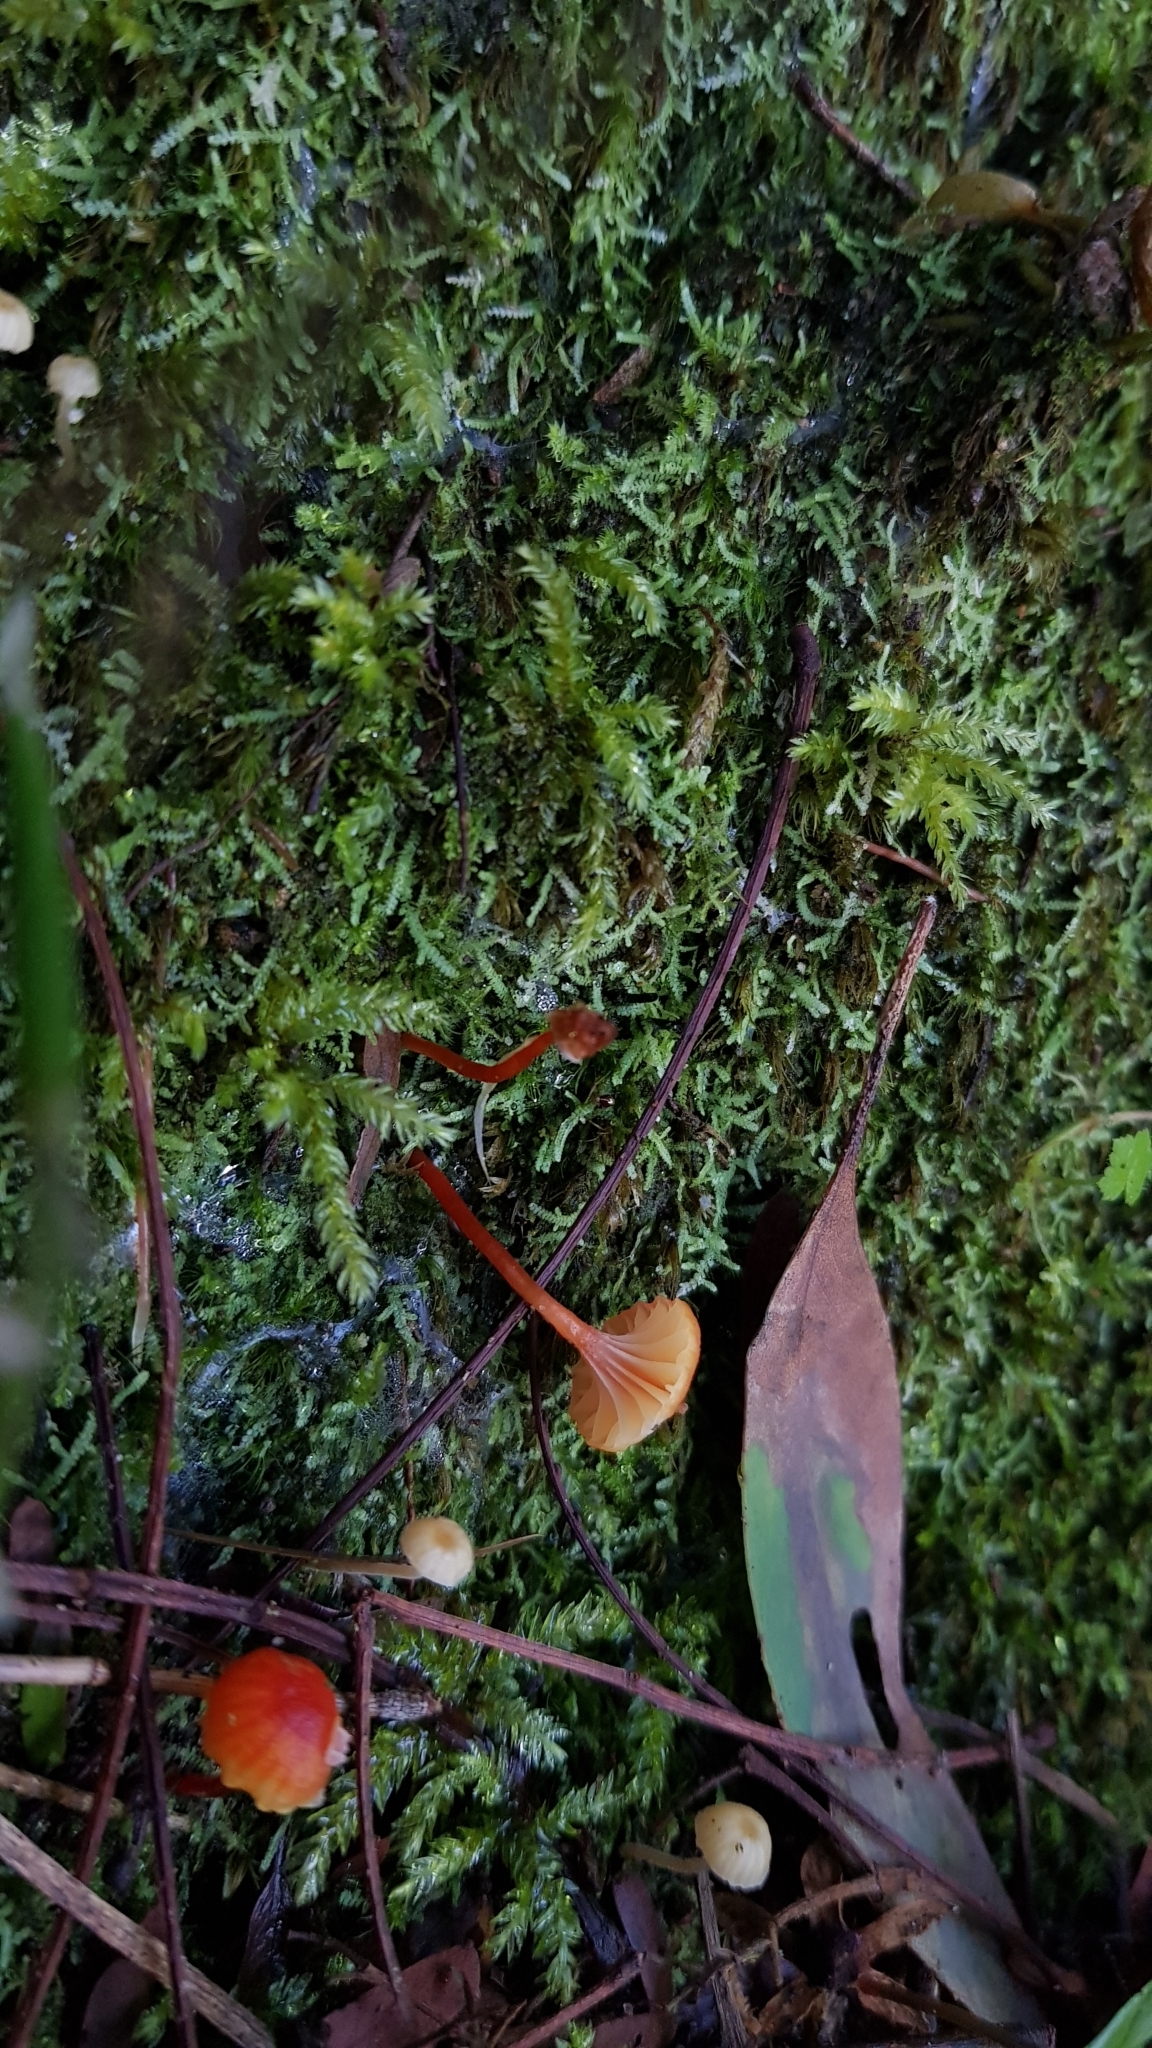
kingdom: Fungi
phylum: Basidiomycota
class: Agaricomycetes
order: Agaricales
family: Hygrophoraceae
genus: Hygrocybe
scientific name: Hygrocybe anomala
